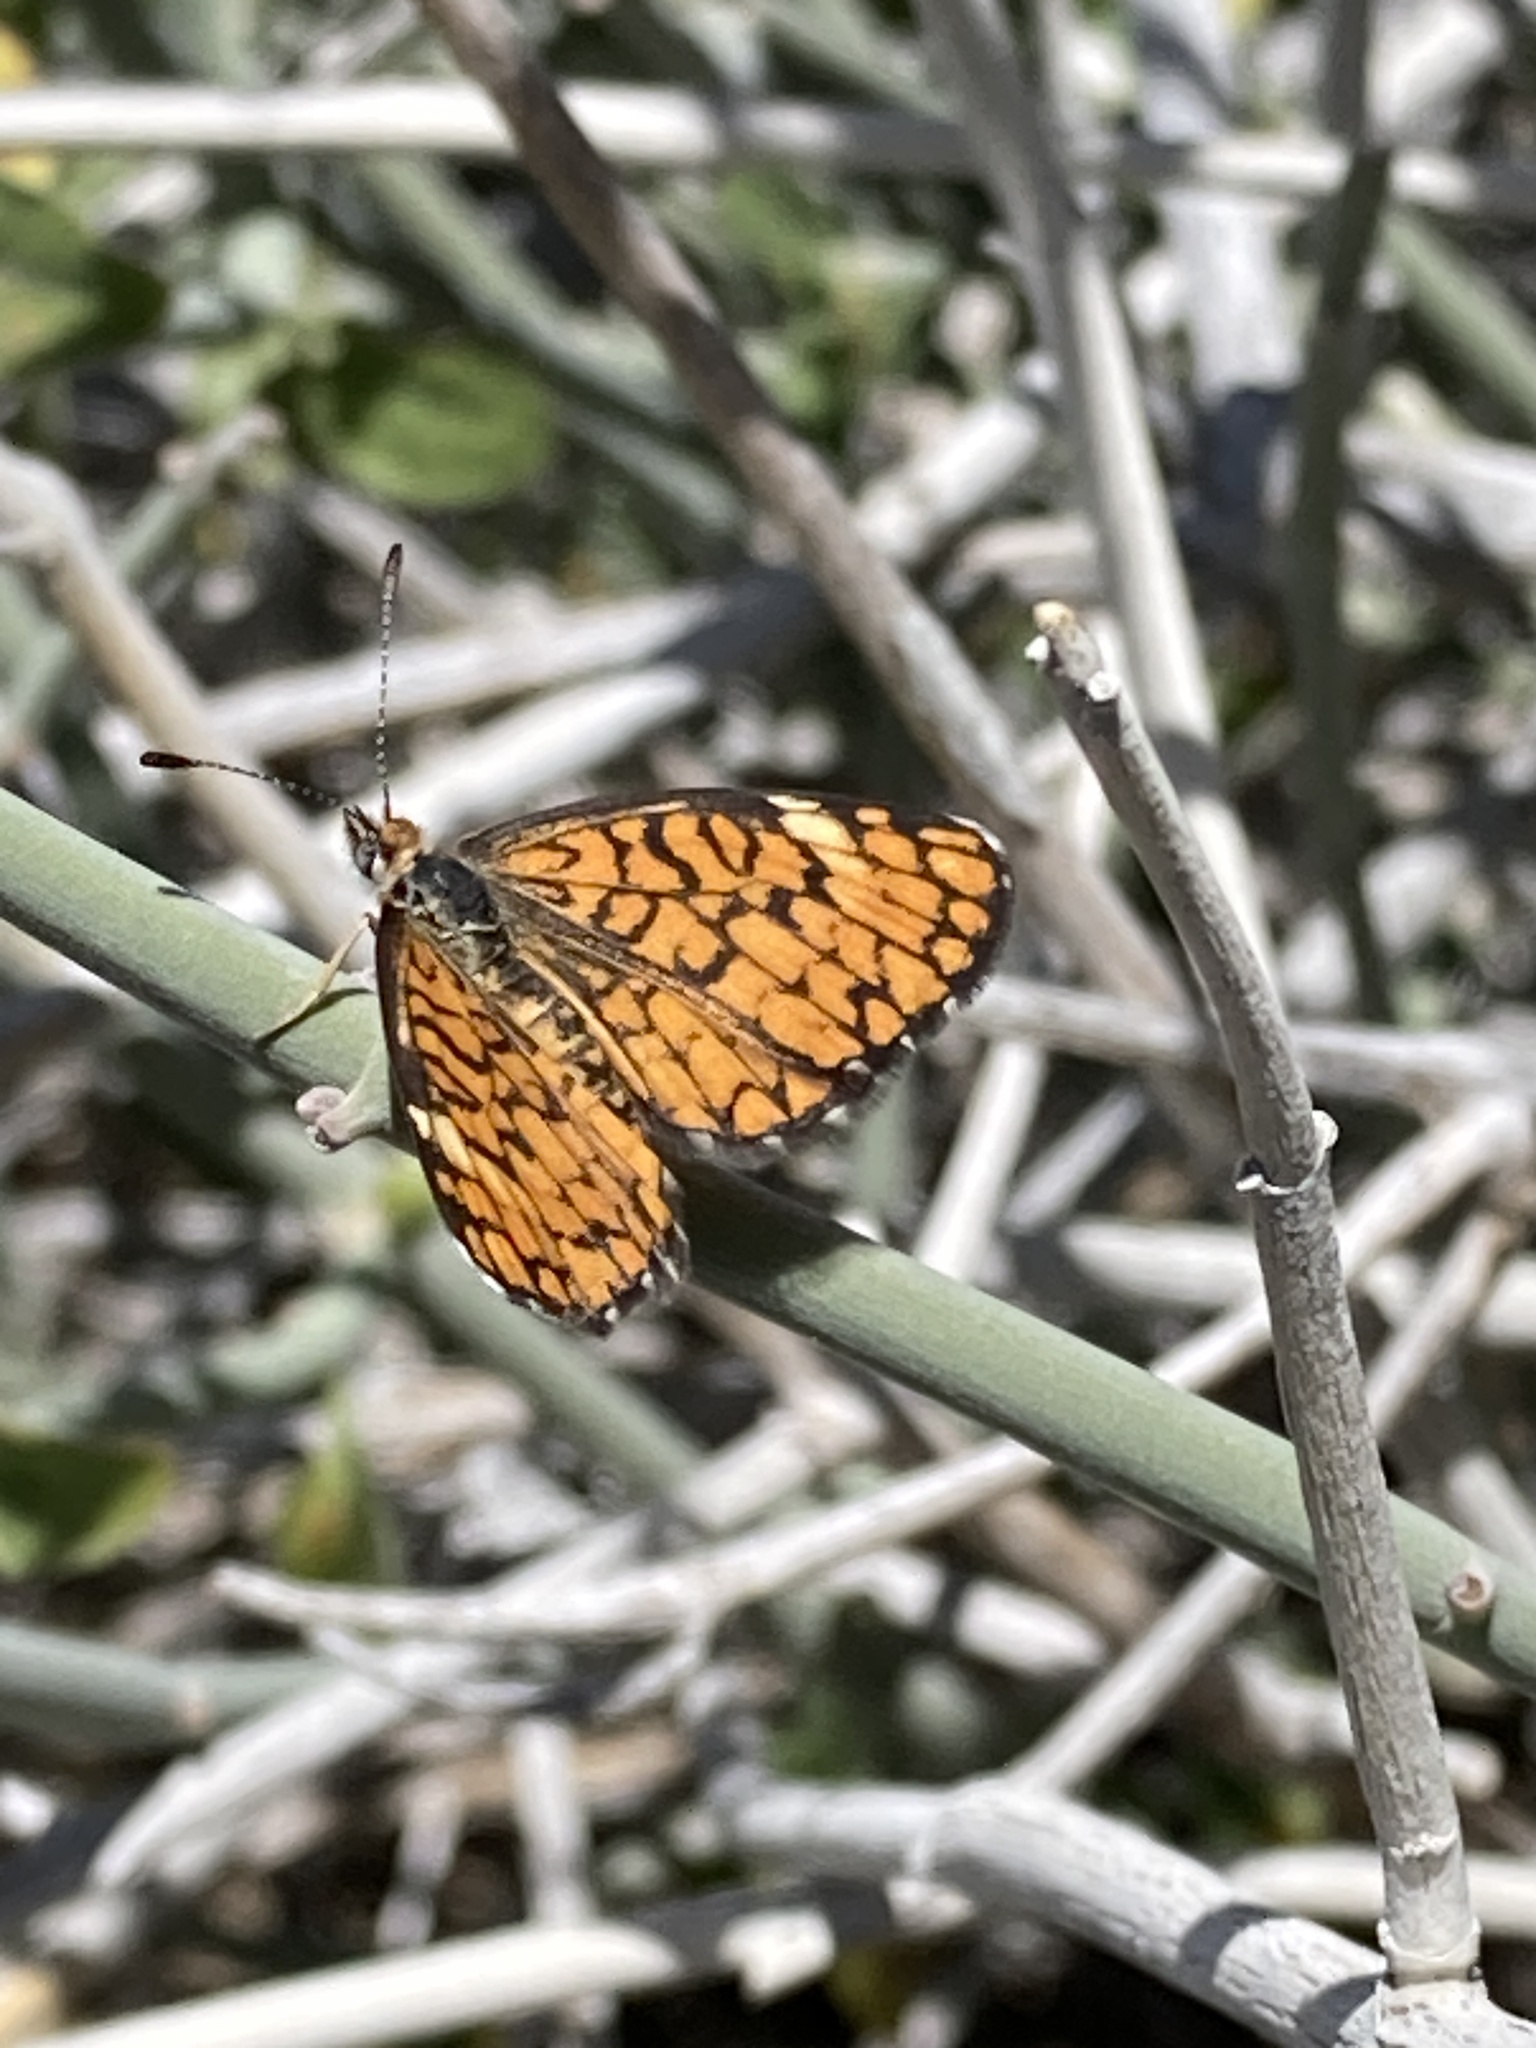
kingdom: Animalia
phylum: Arthropoda
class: Insecta
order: Lepidoptera
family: Nymphalidae
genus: Dymasia
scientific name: Dymasia dymas
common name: Tiny checkerspot
